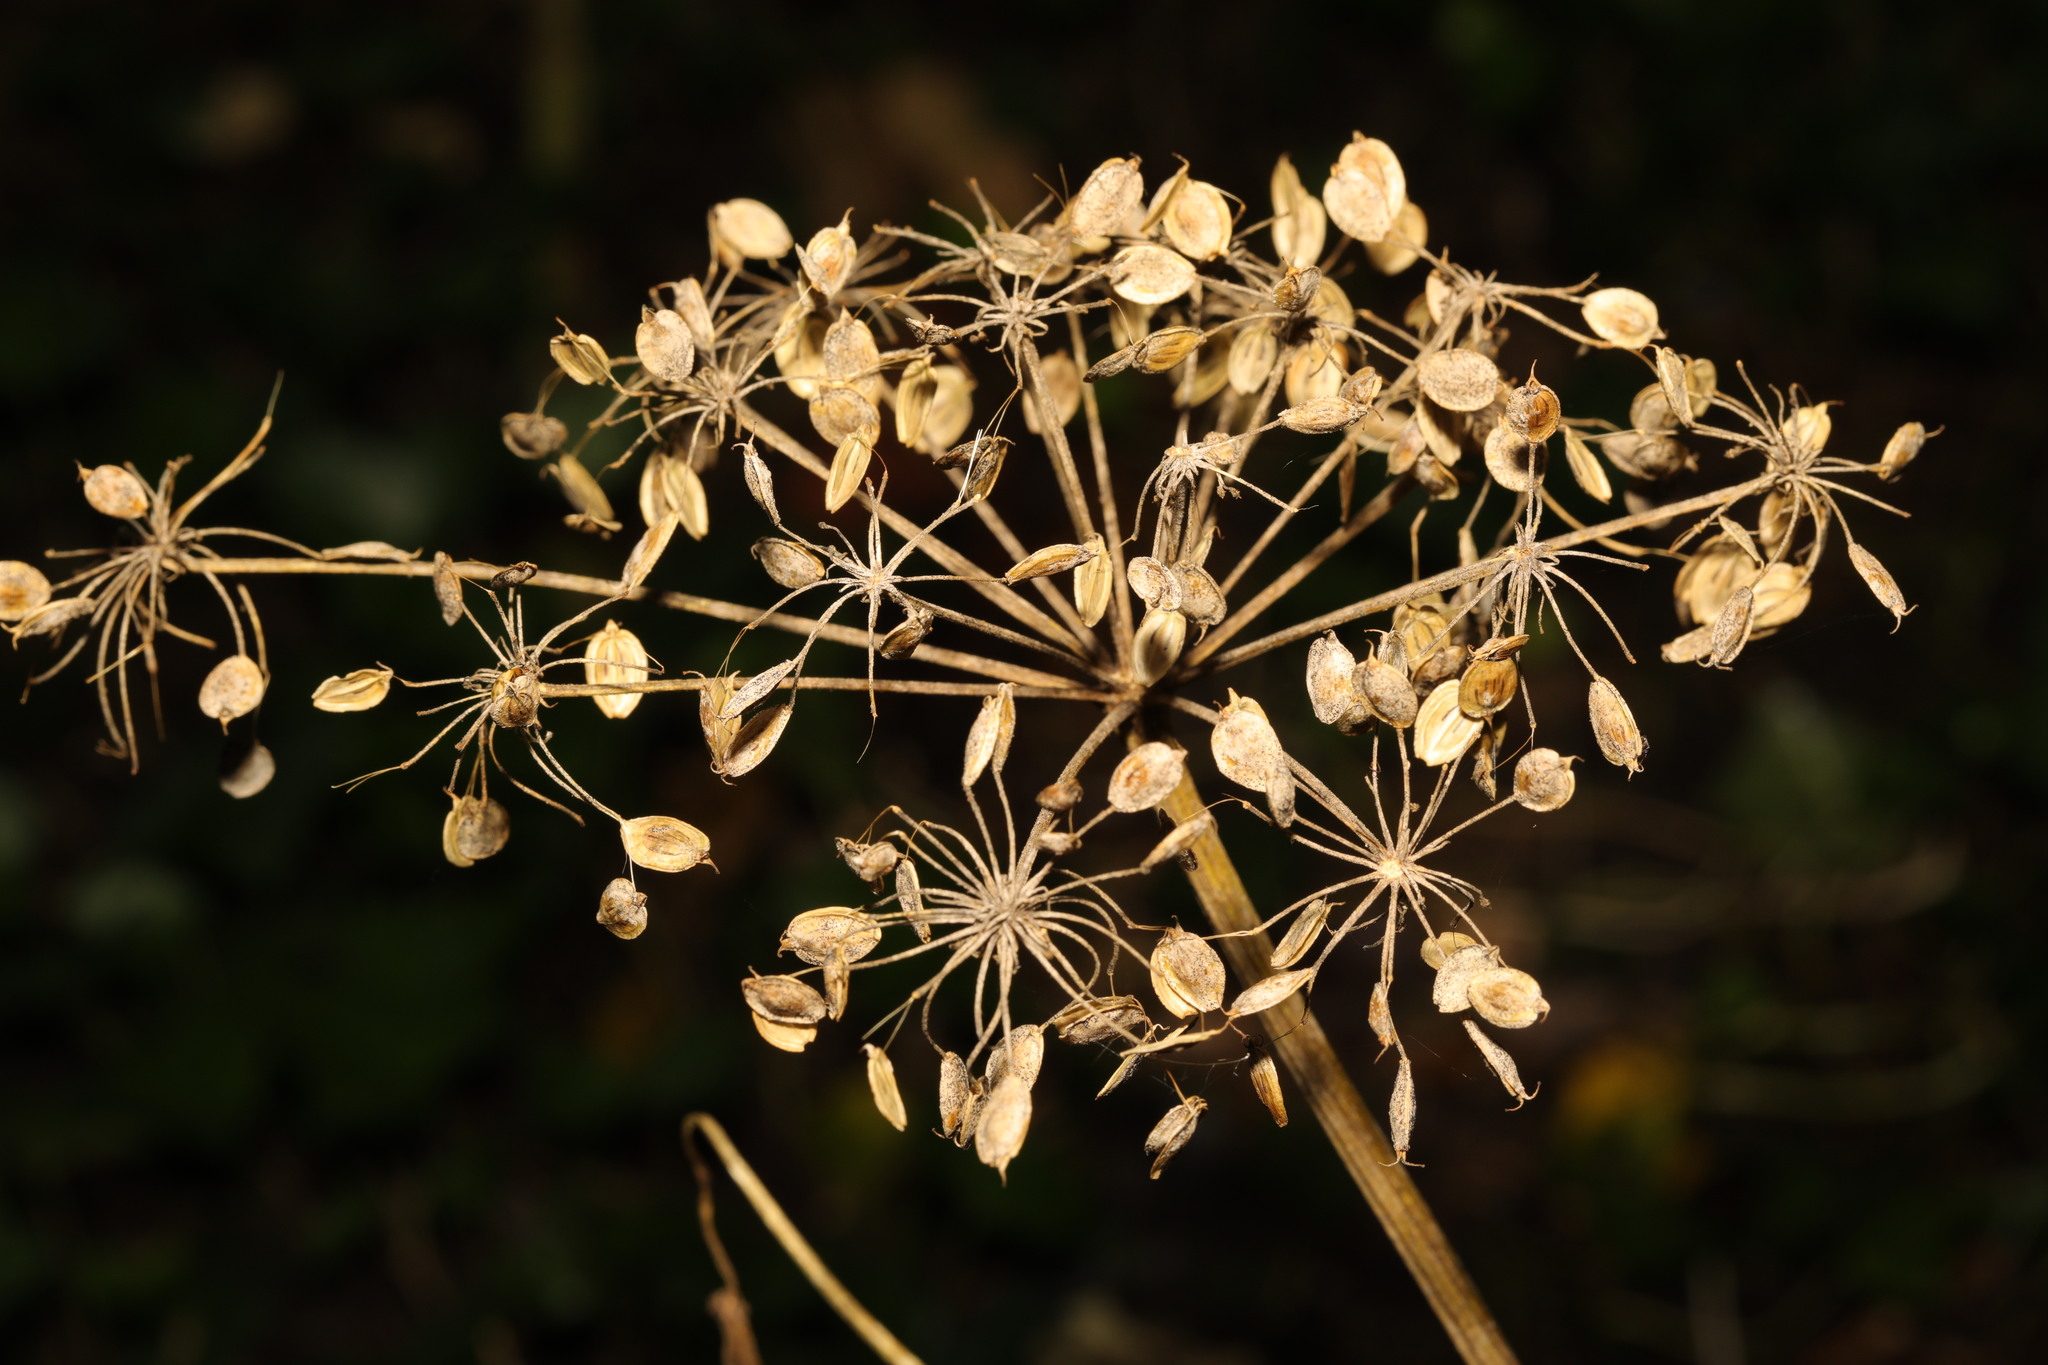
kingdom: Plantae
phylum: Tracheophyta
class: Magnoliopsida
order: Apiales
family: Apiaceae
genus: Heracleum
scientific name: Heracleum sphondylium
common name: Hogweed
